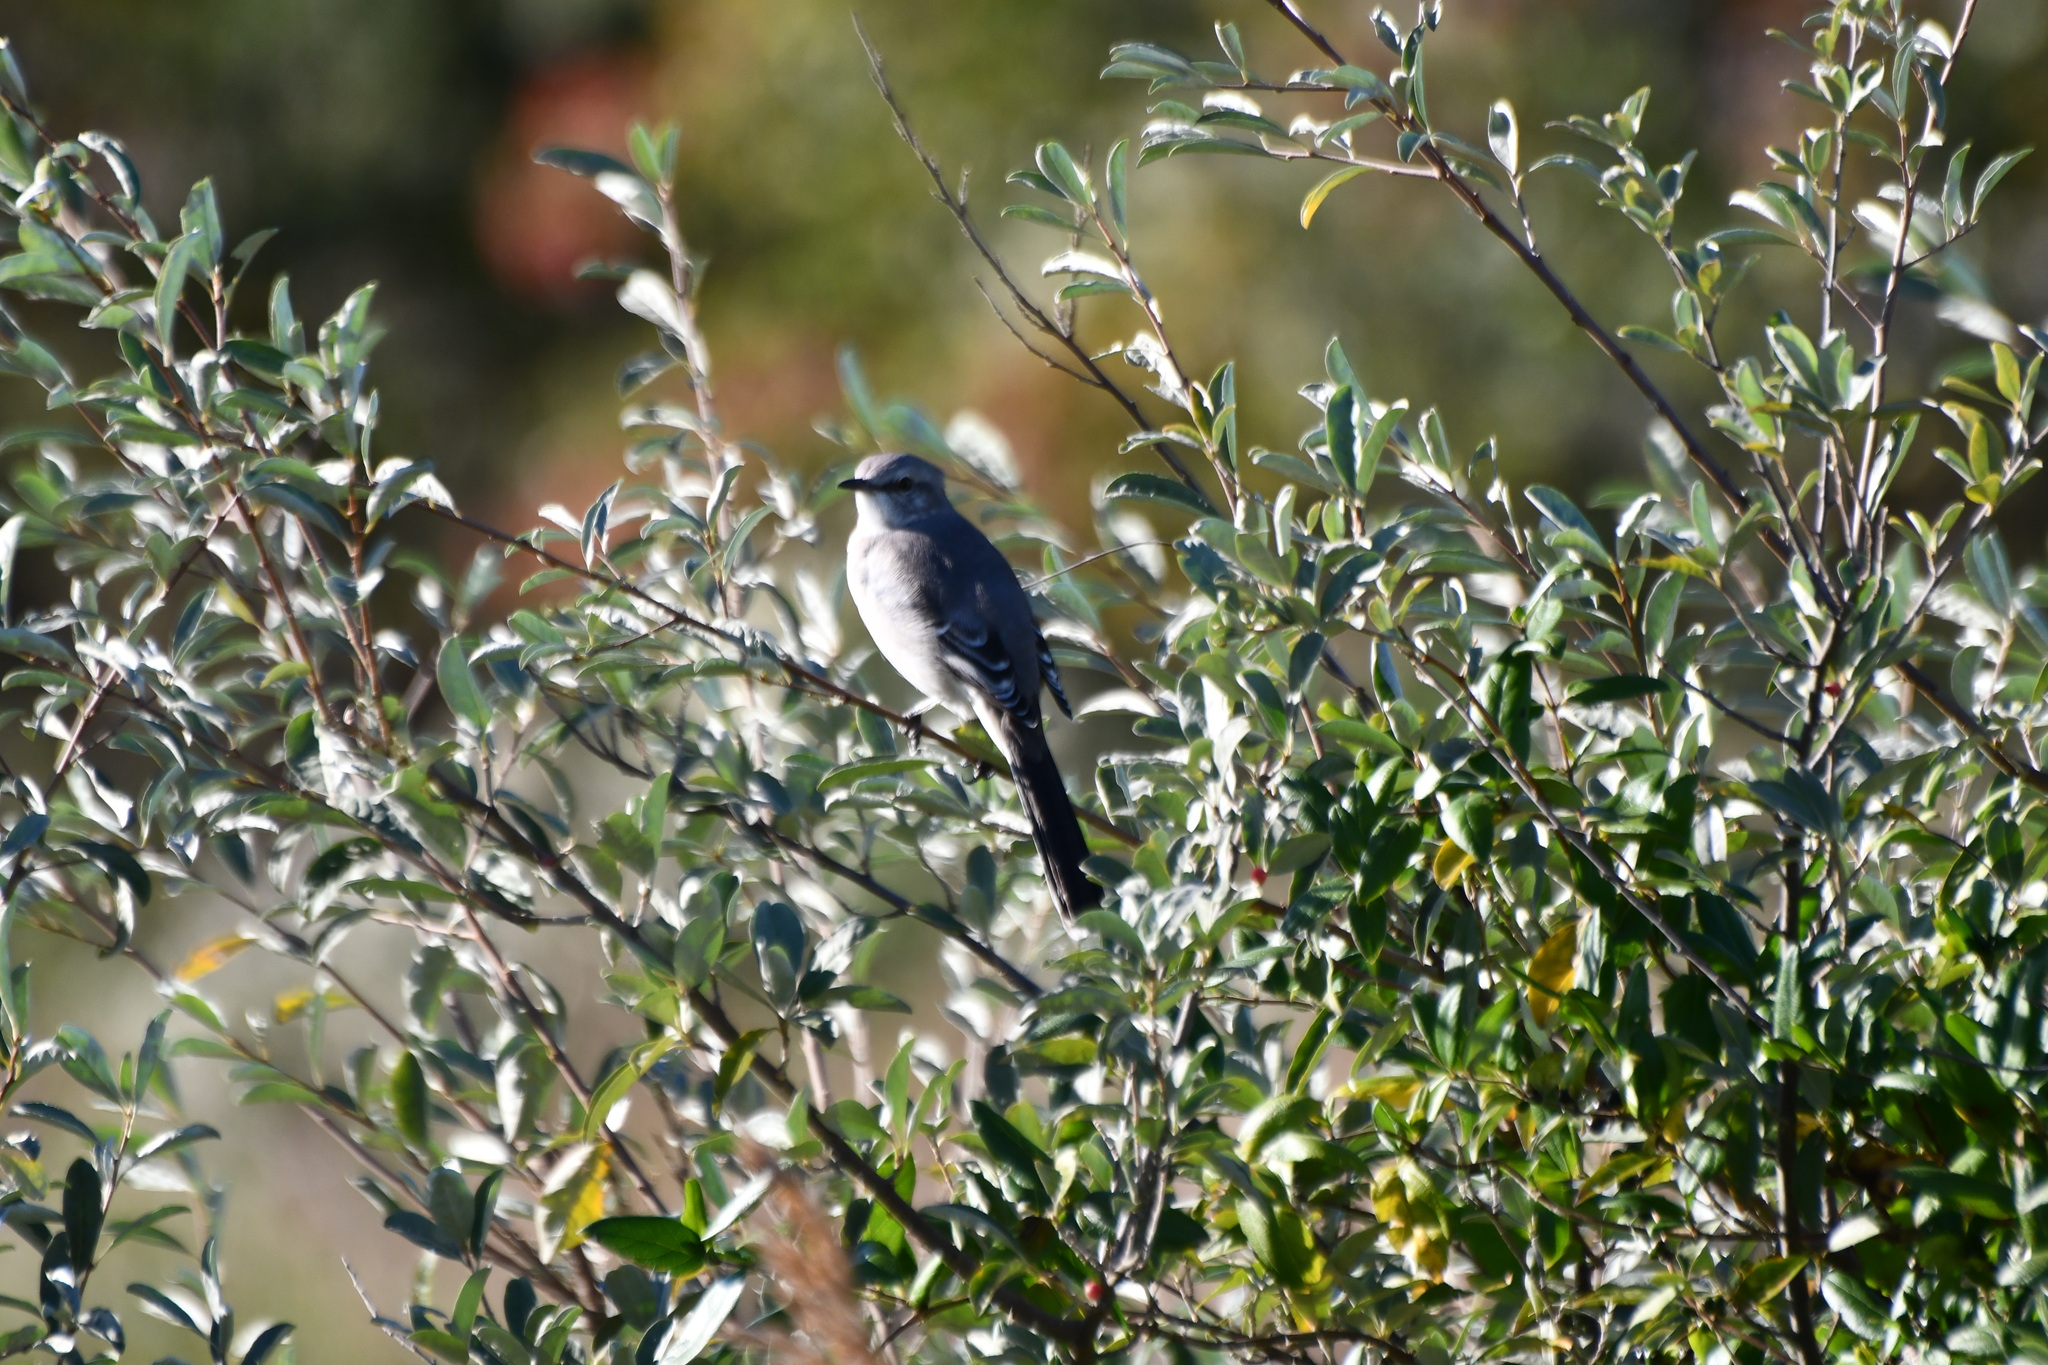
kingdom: Animalia
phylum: Chordata
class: Aves
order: Passeriformes
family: Mimidae
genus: Mimus
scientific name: Mimus polyglottos
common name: Northern mockingbird
